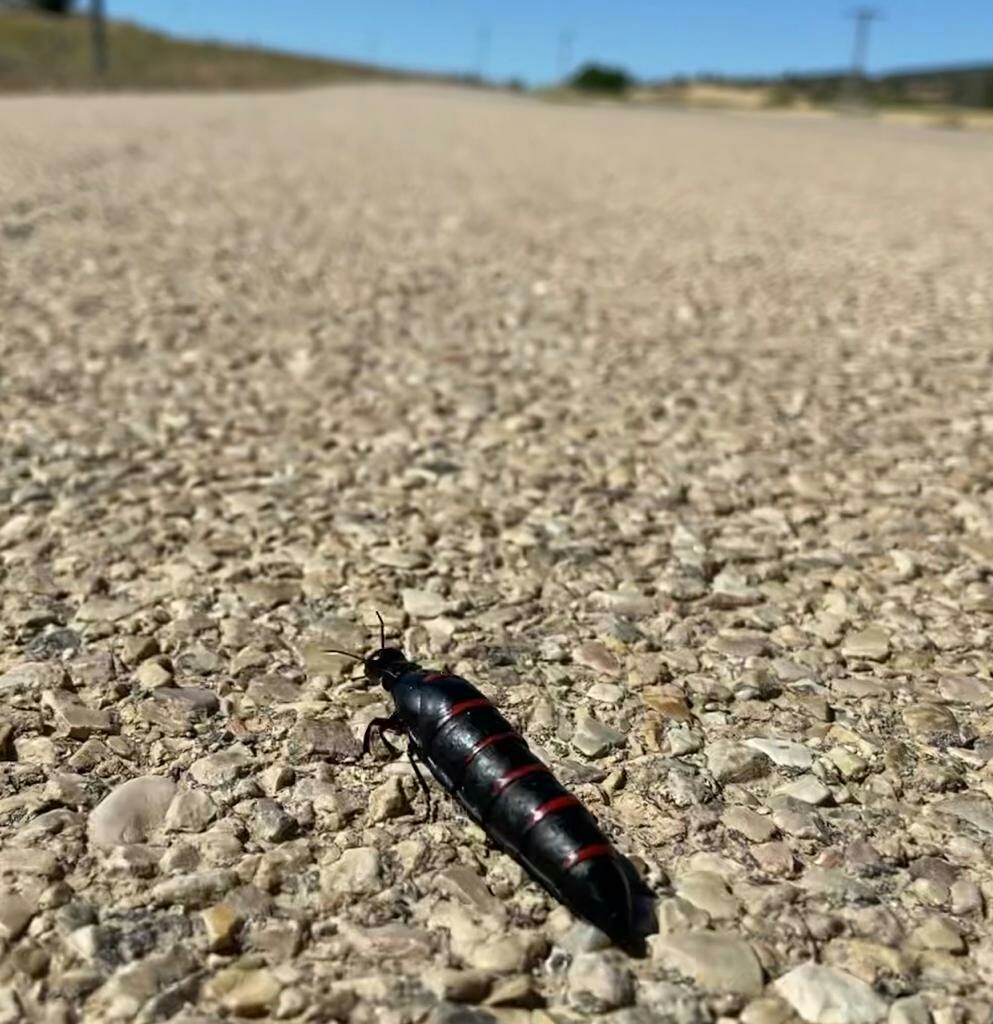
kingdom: Animalia
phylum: Arthropoda
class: Insecta
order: Coleoptera
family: Meloidae
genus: Berberomeloe
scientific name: Berberomeloe majalis
